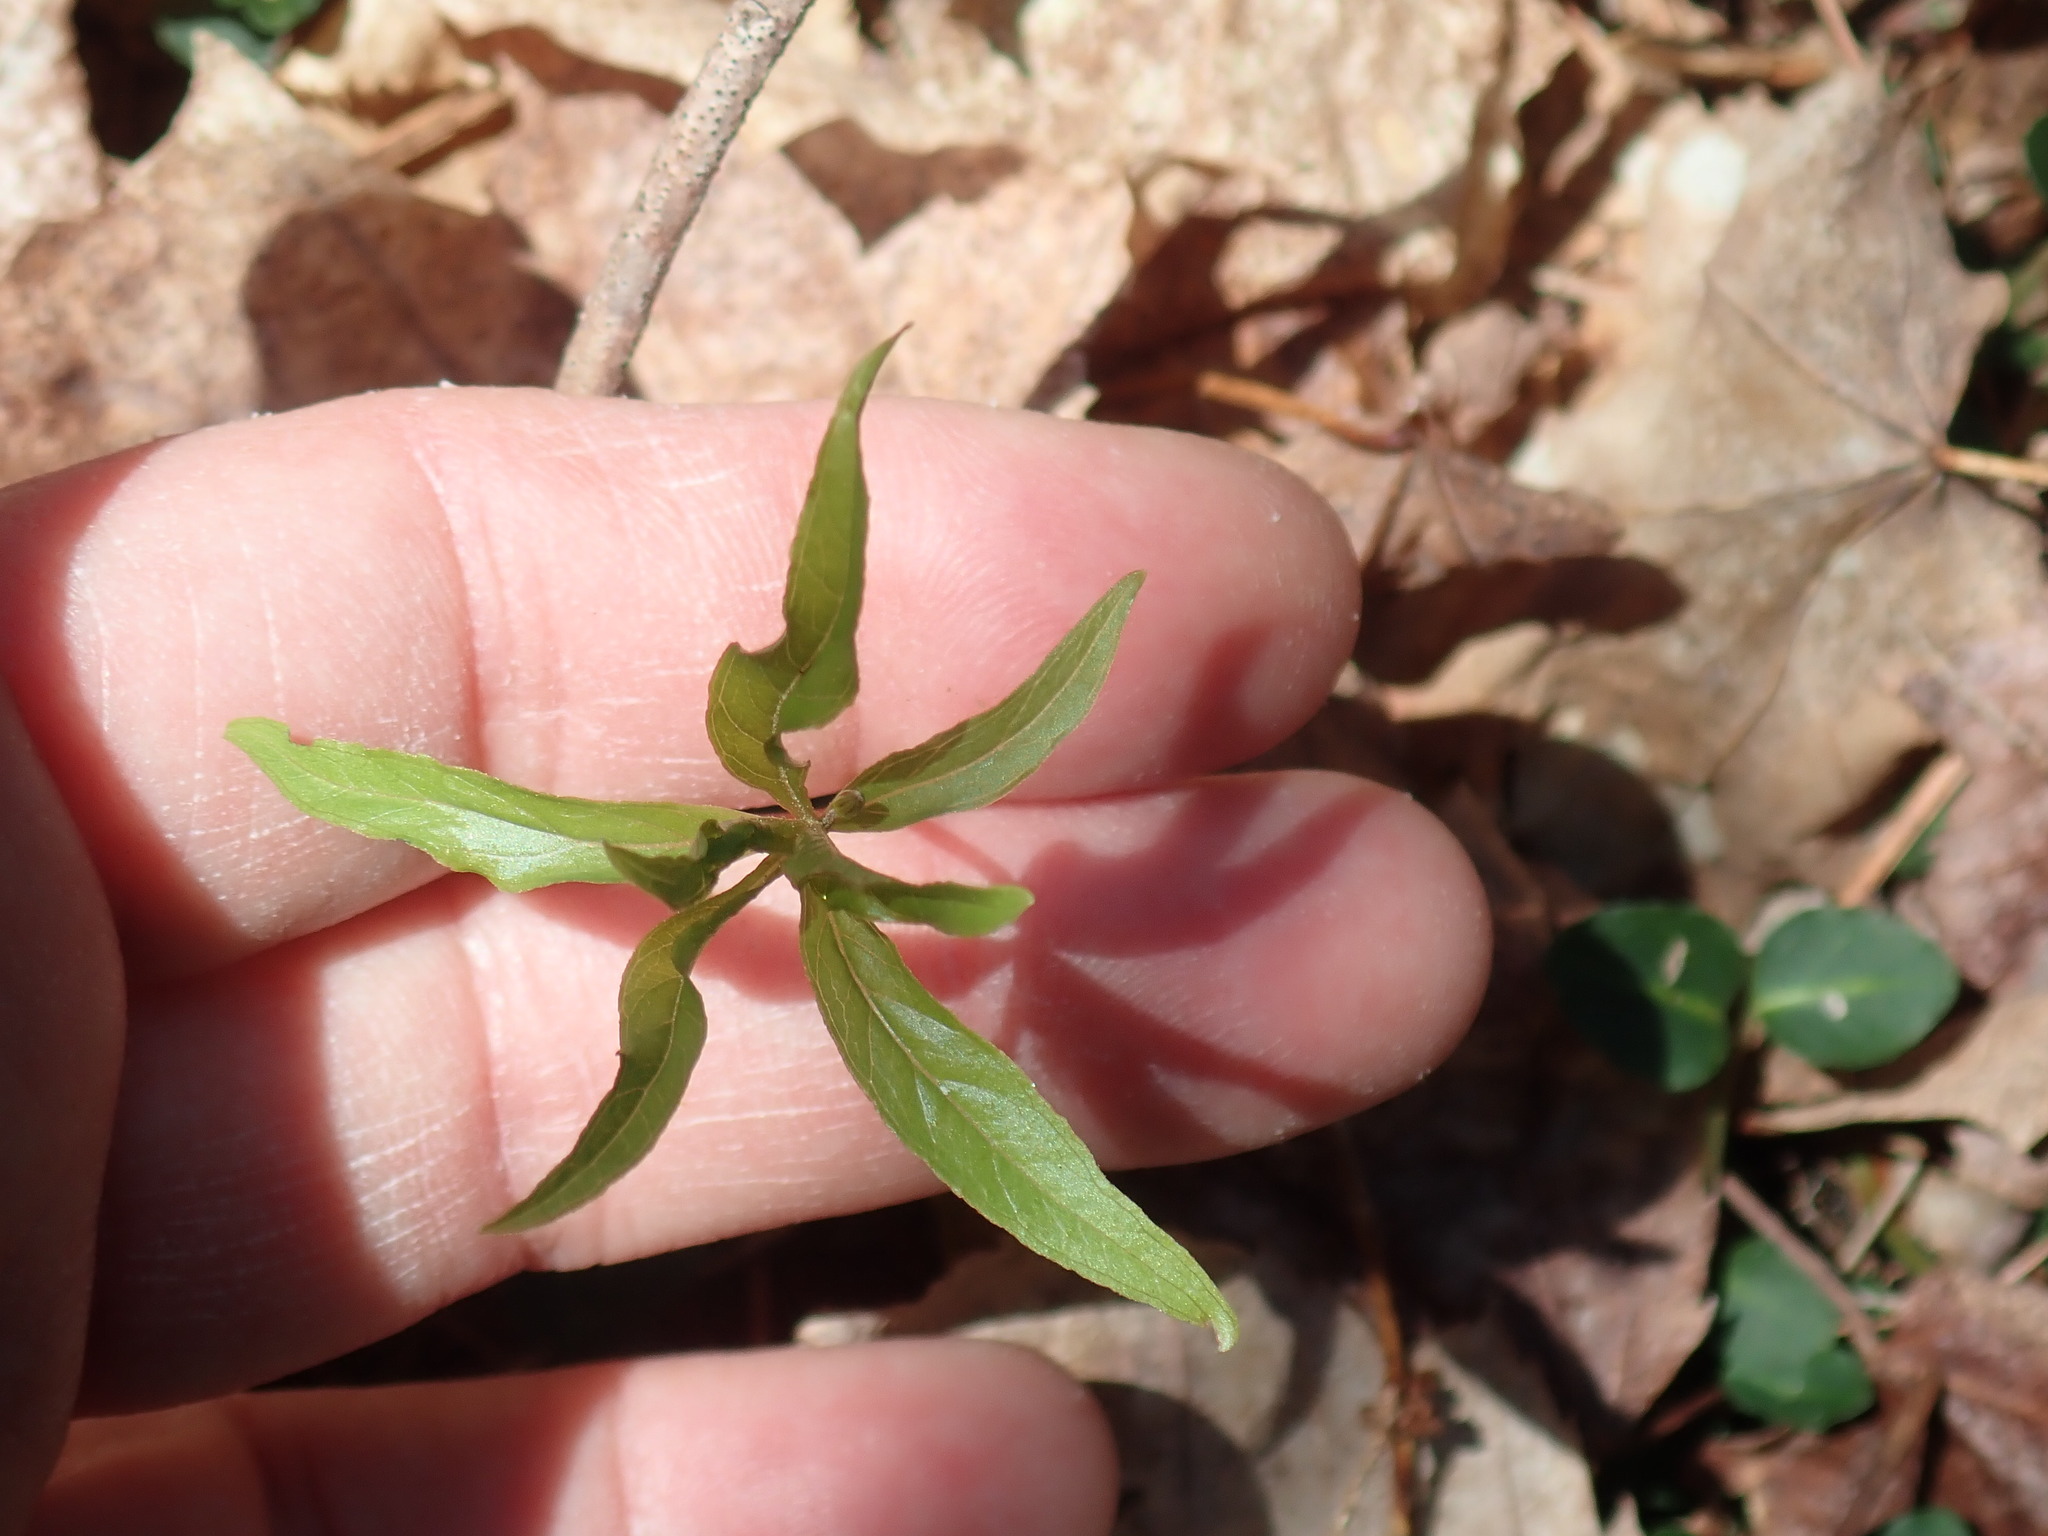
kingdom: Plantae
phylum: Tracheophyta
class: Magnoliopsida
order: Ericales
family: Primulaceae
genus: Lysimachia
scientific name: Lysimachia borealis
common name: American starflower
